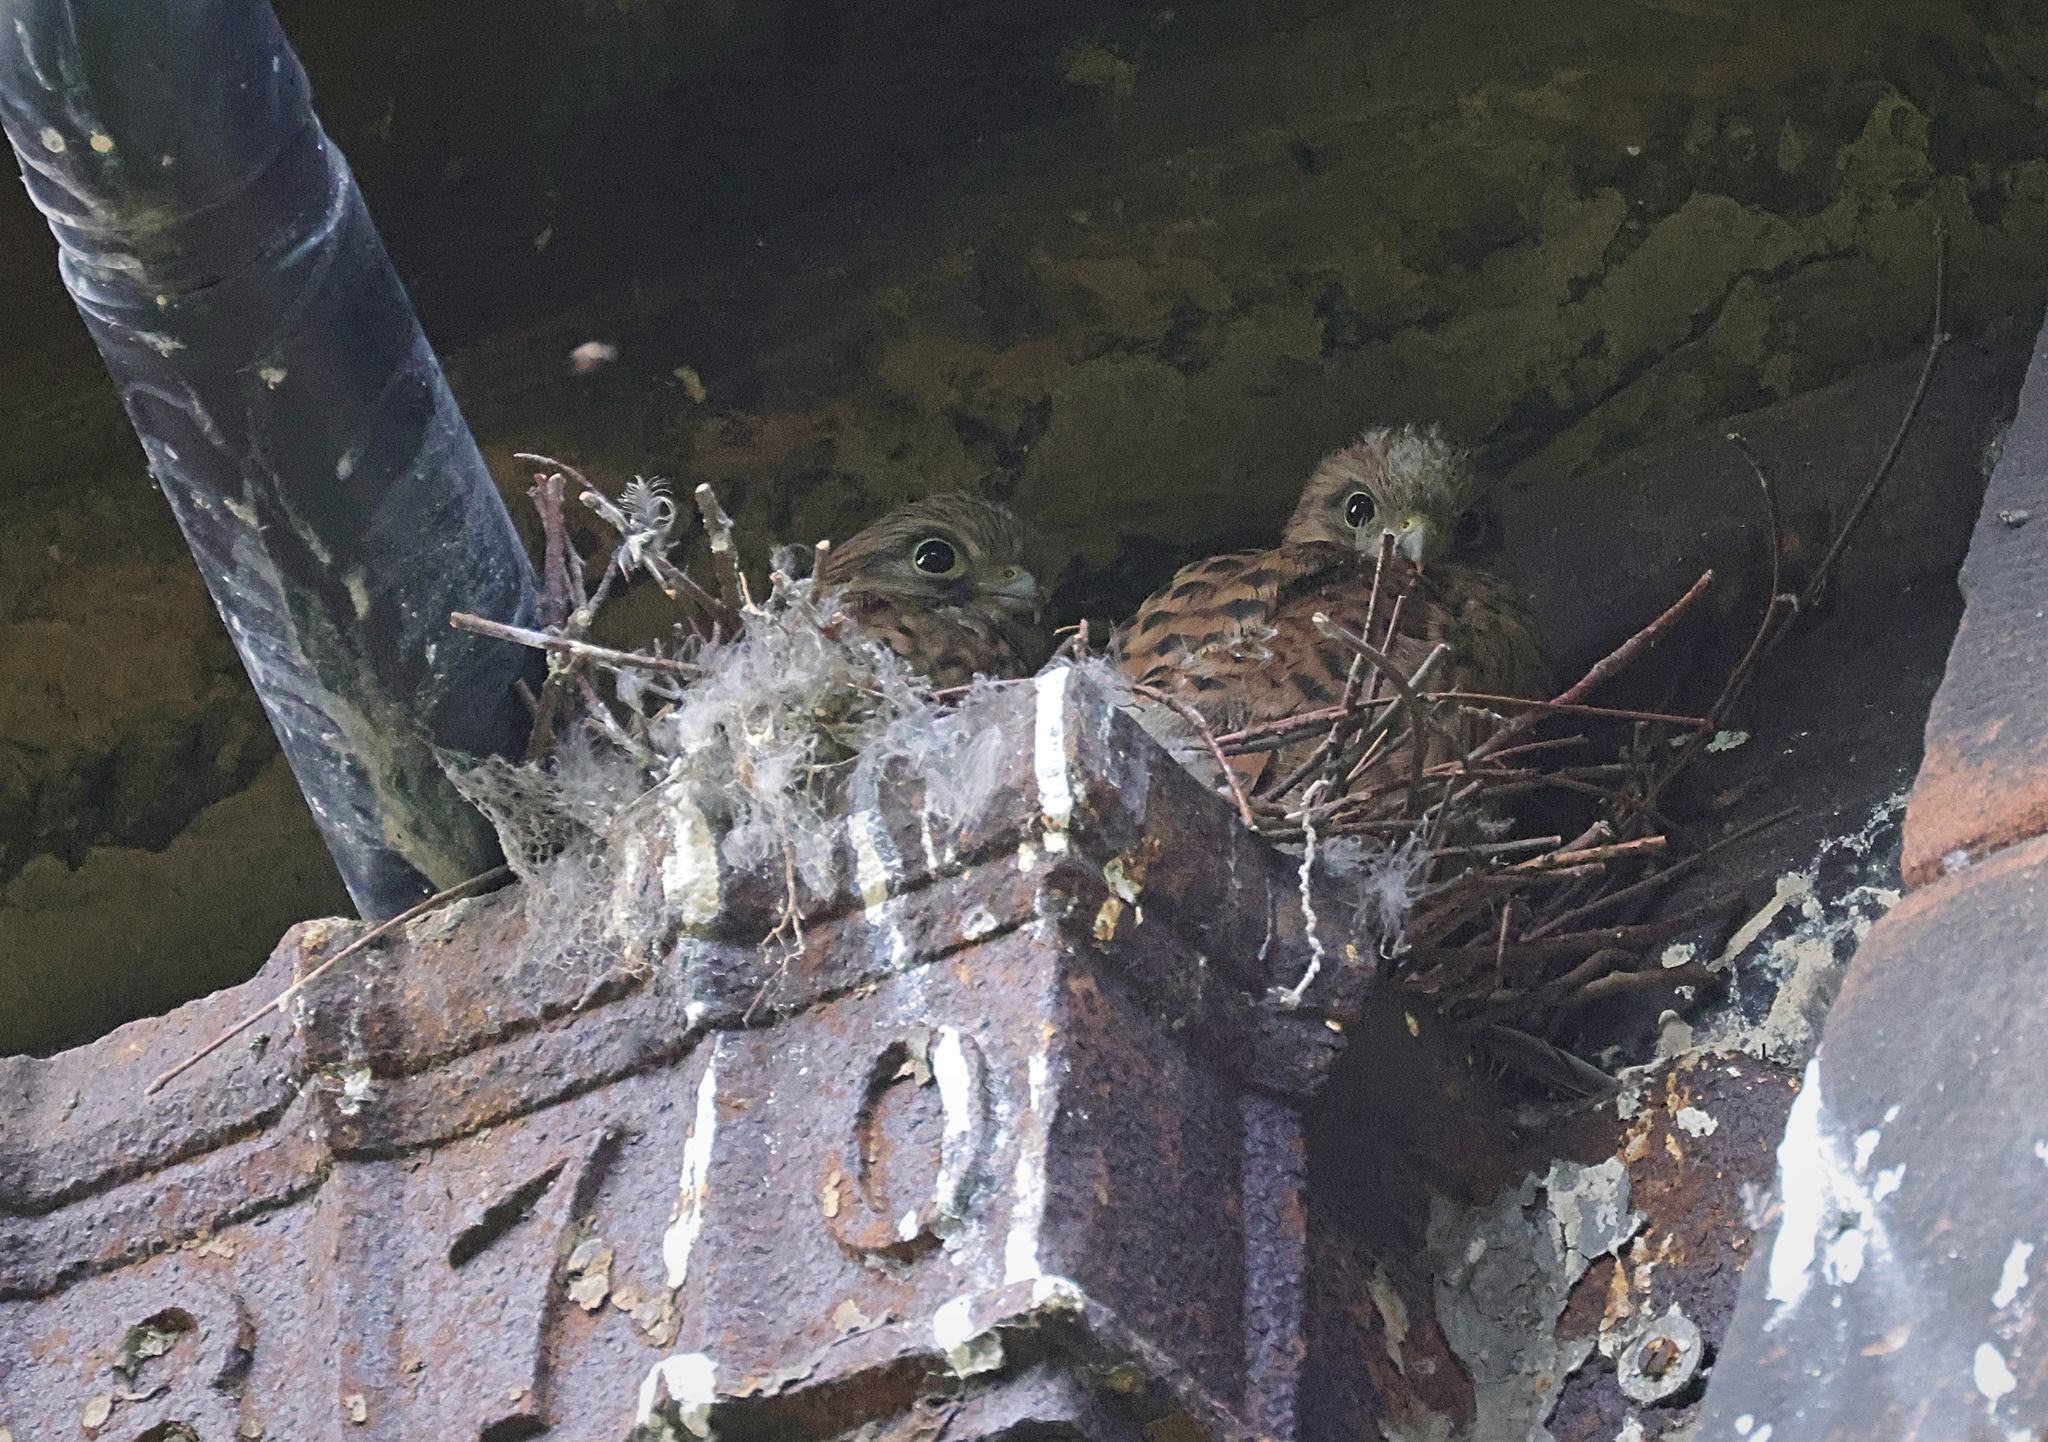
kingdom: Animalia
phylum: Chordata
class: Aves
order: Falconiformes
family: Falconidae
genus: Falco
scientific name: Falco tinnunculus
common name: Common kestrel
